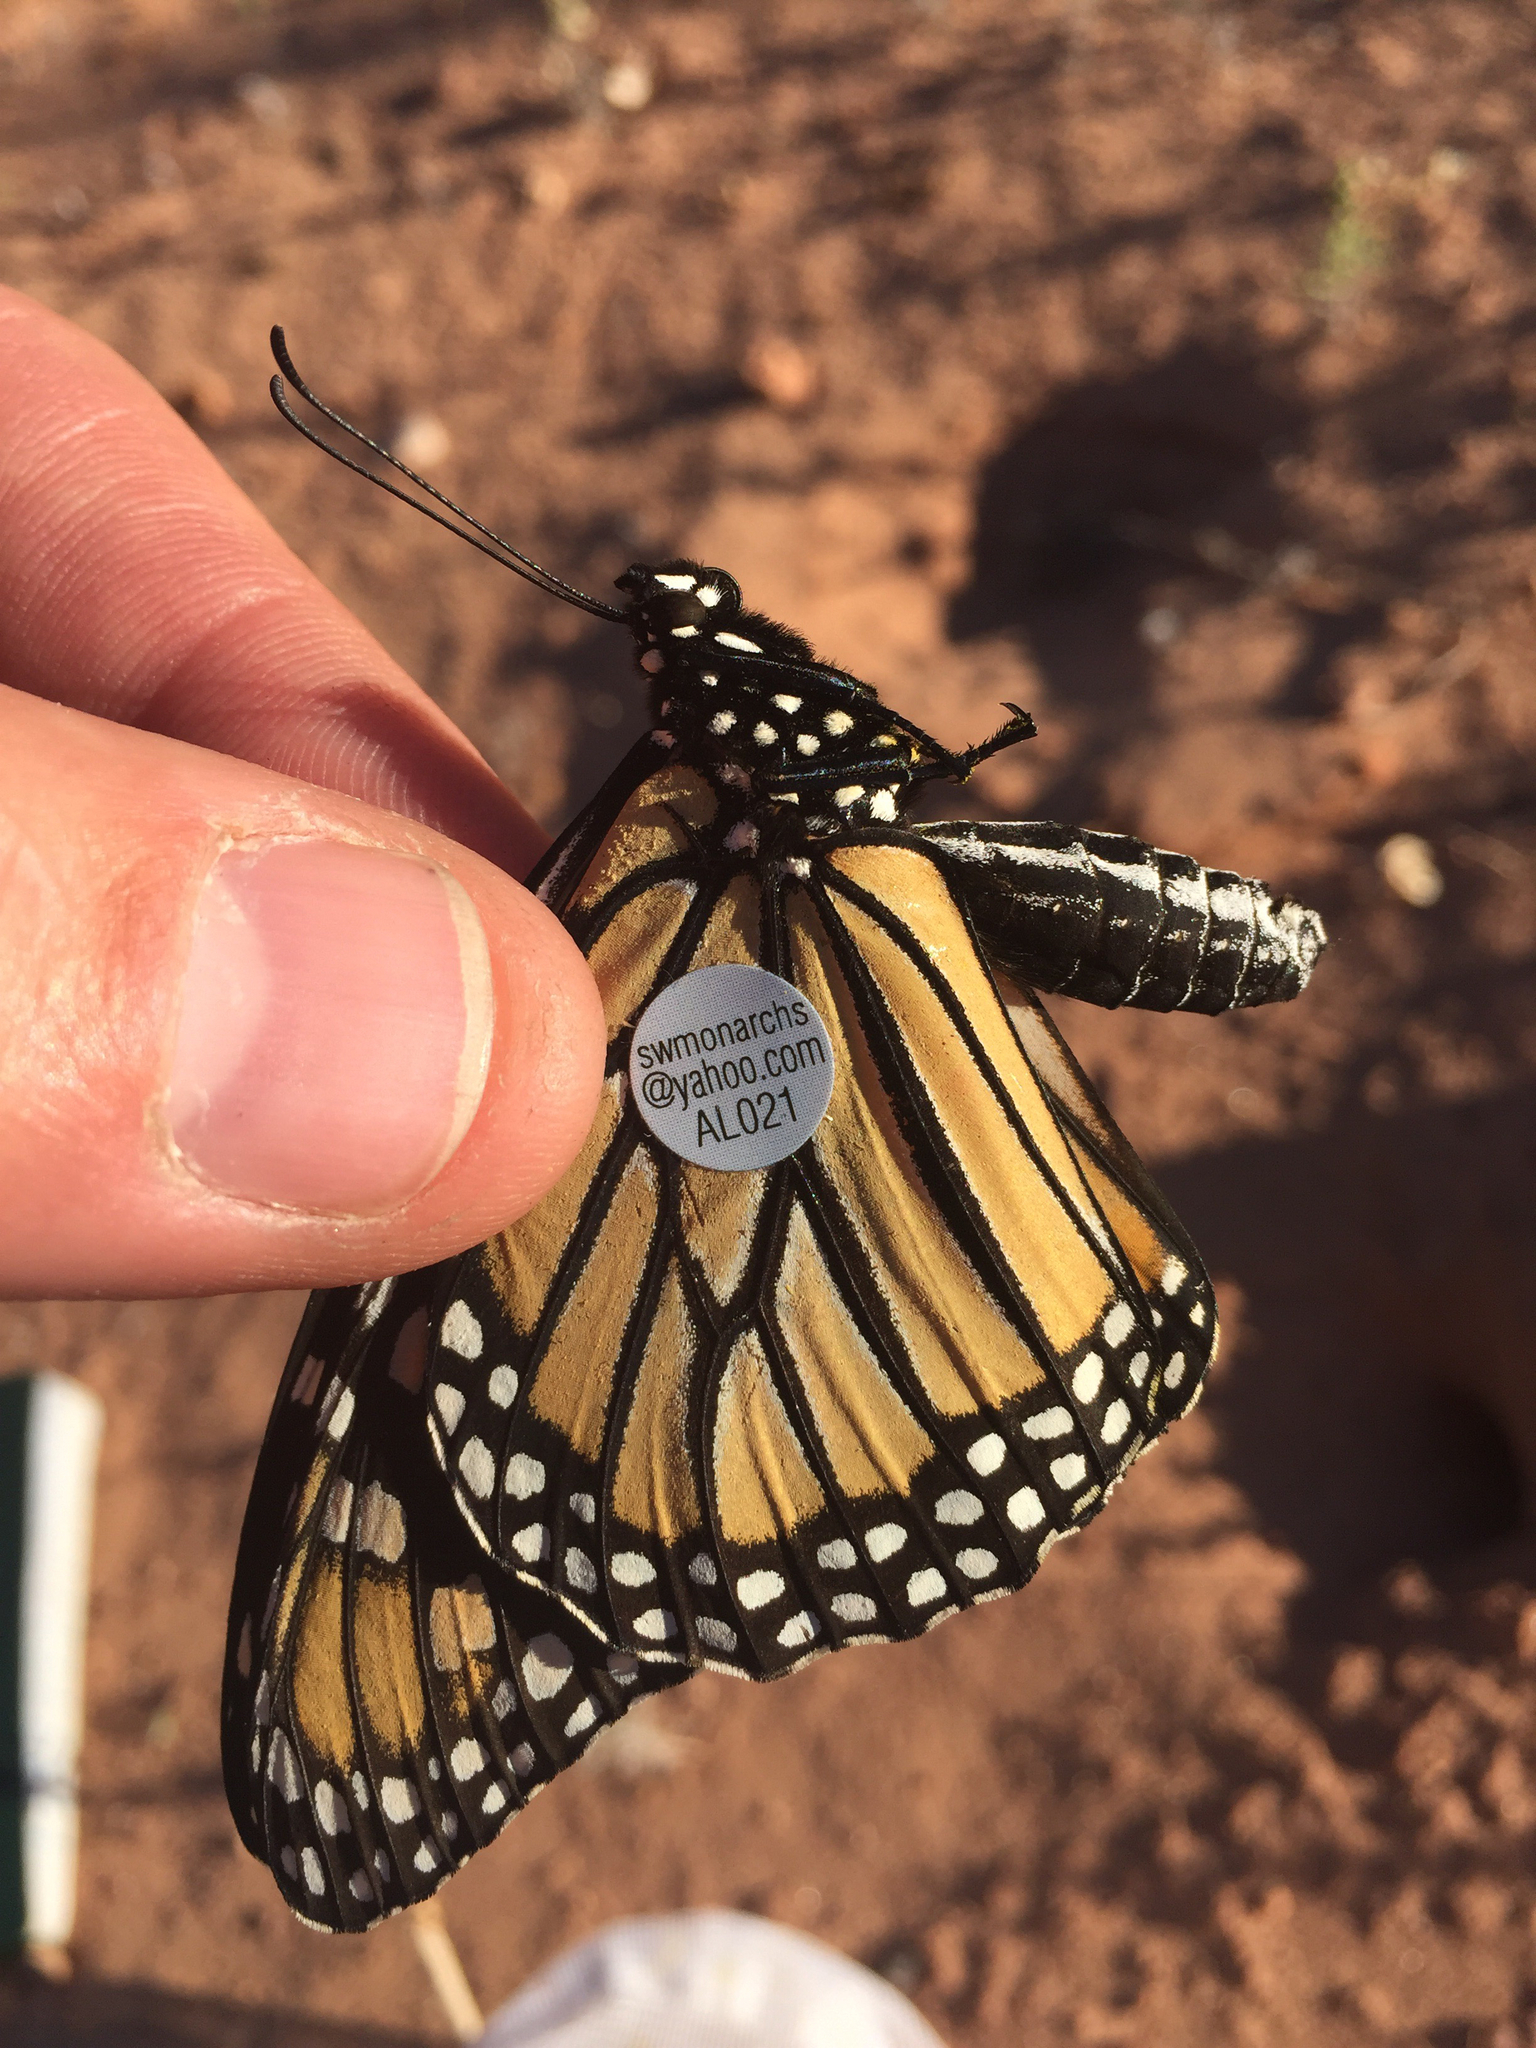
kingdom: Animalia
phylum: Arthropoda
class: Insecta
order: Lepidoptera
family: Nymphalidae
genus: Danaus
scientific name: Danaus plexippus
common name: Monarch
